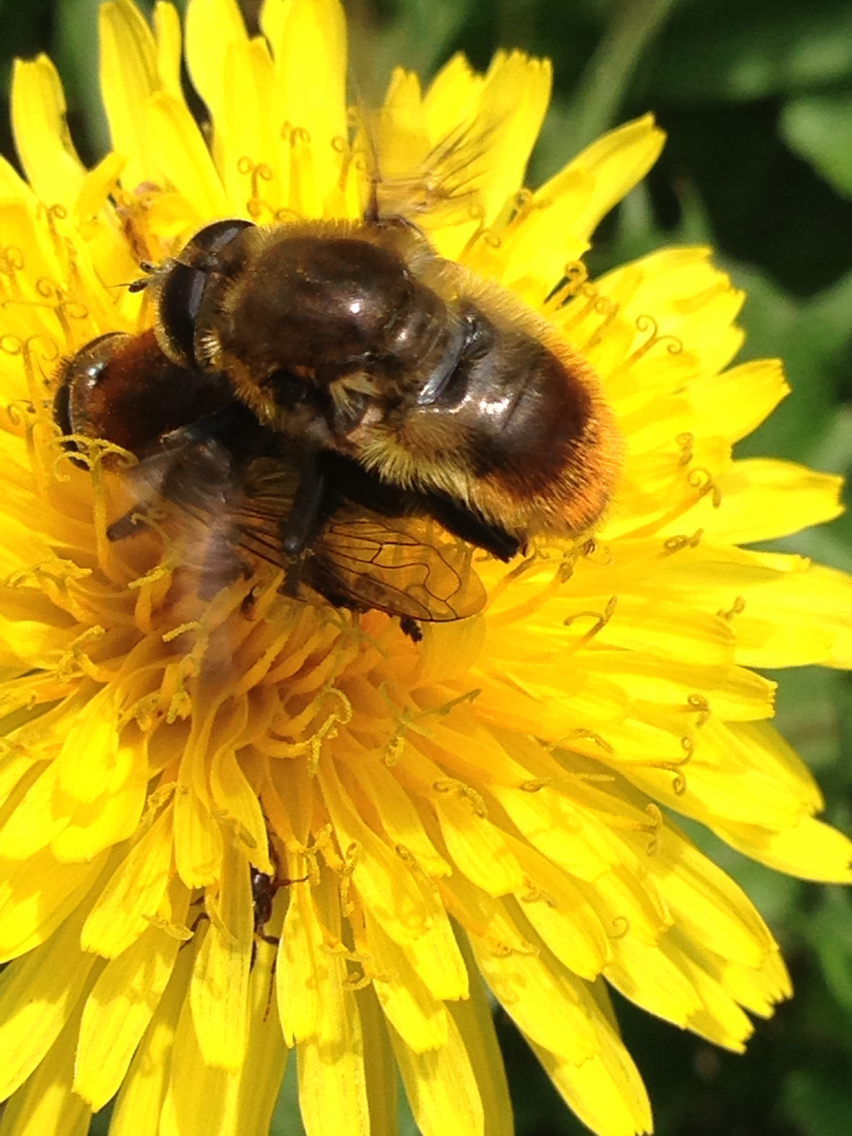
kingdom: Animalia
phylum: Arthropoda
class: Insecta
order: Diptera
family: Syrphidae
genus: Merodon
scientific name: Merodon equestris
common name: Greater bulb-fly
